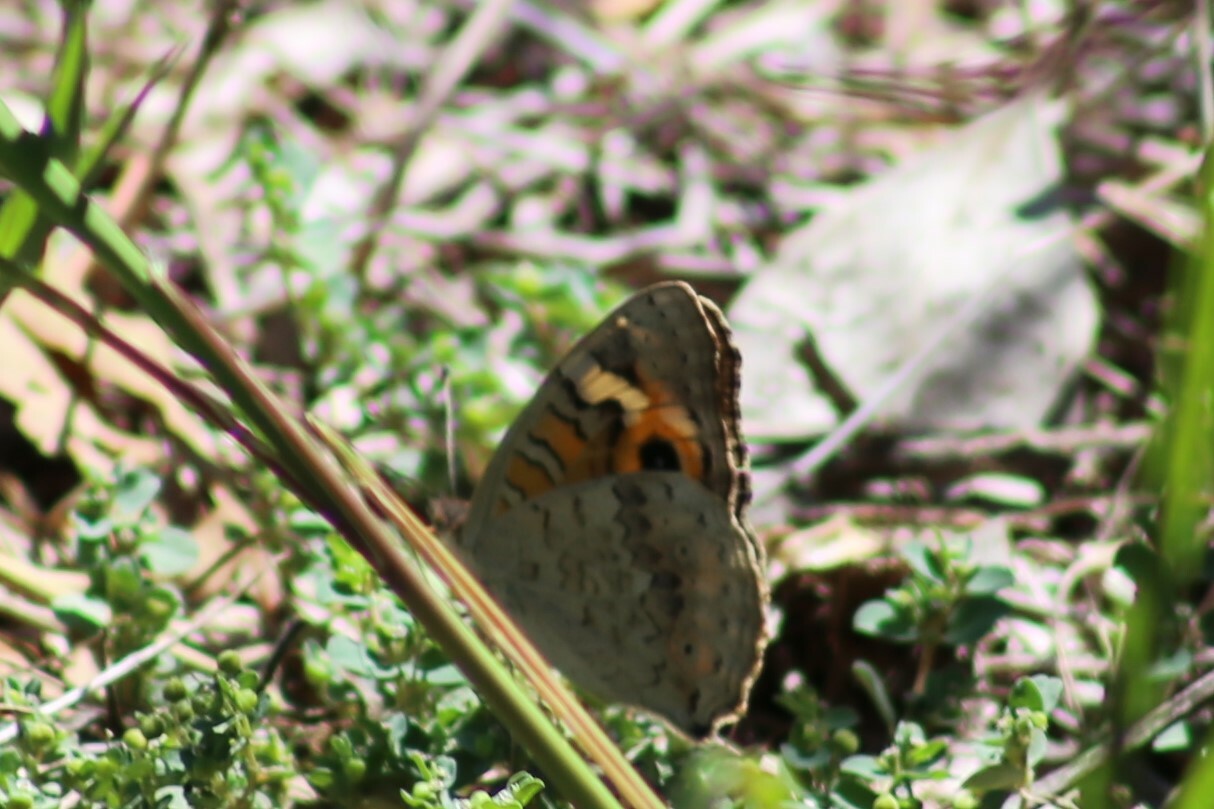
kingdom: Animalia
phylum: Arthropoda
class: Insecta
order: Lepidoptera
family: Nymphalidae
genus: Junonia
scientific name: Junonia villida
